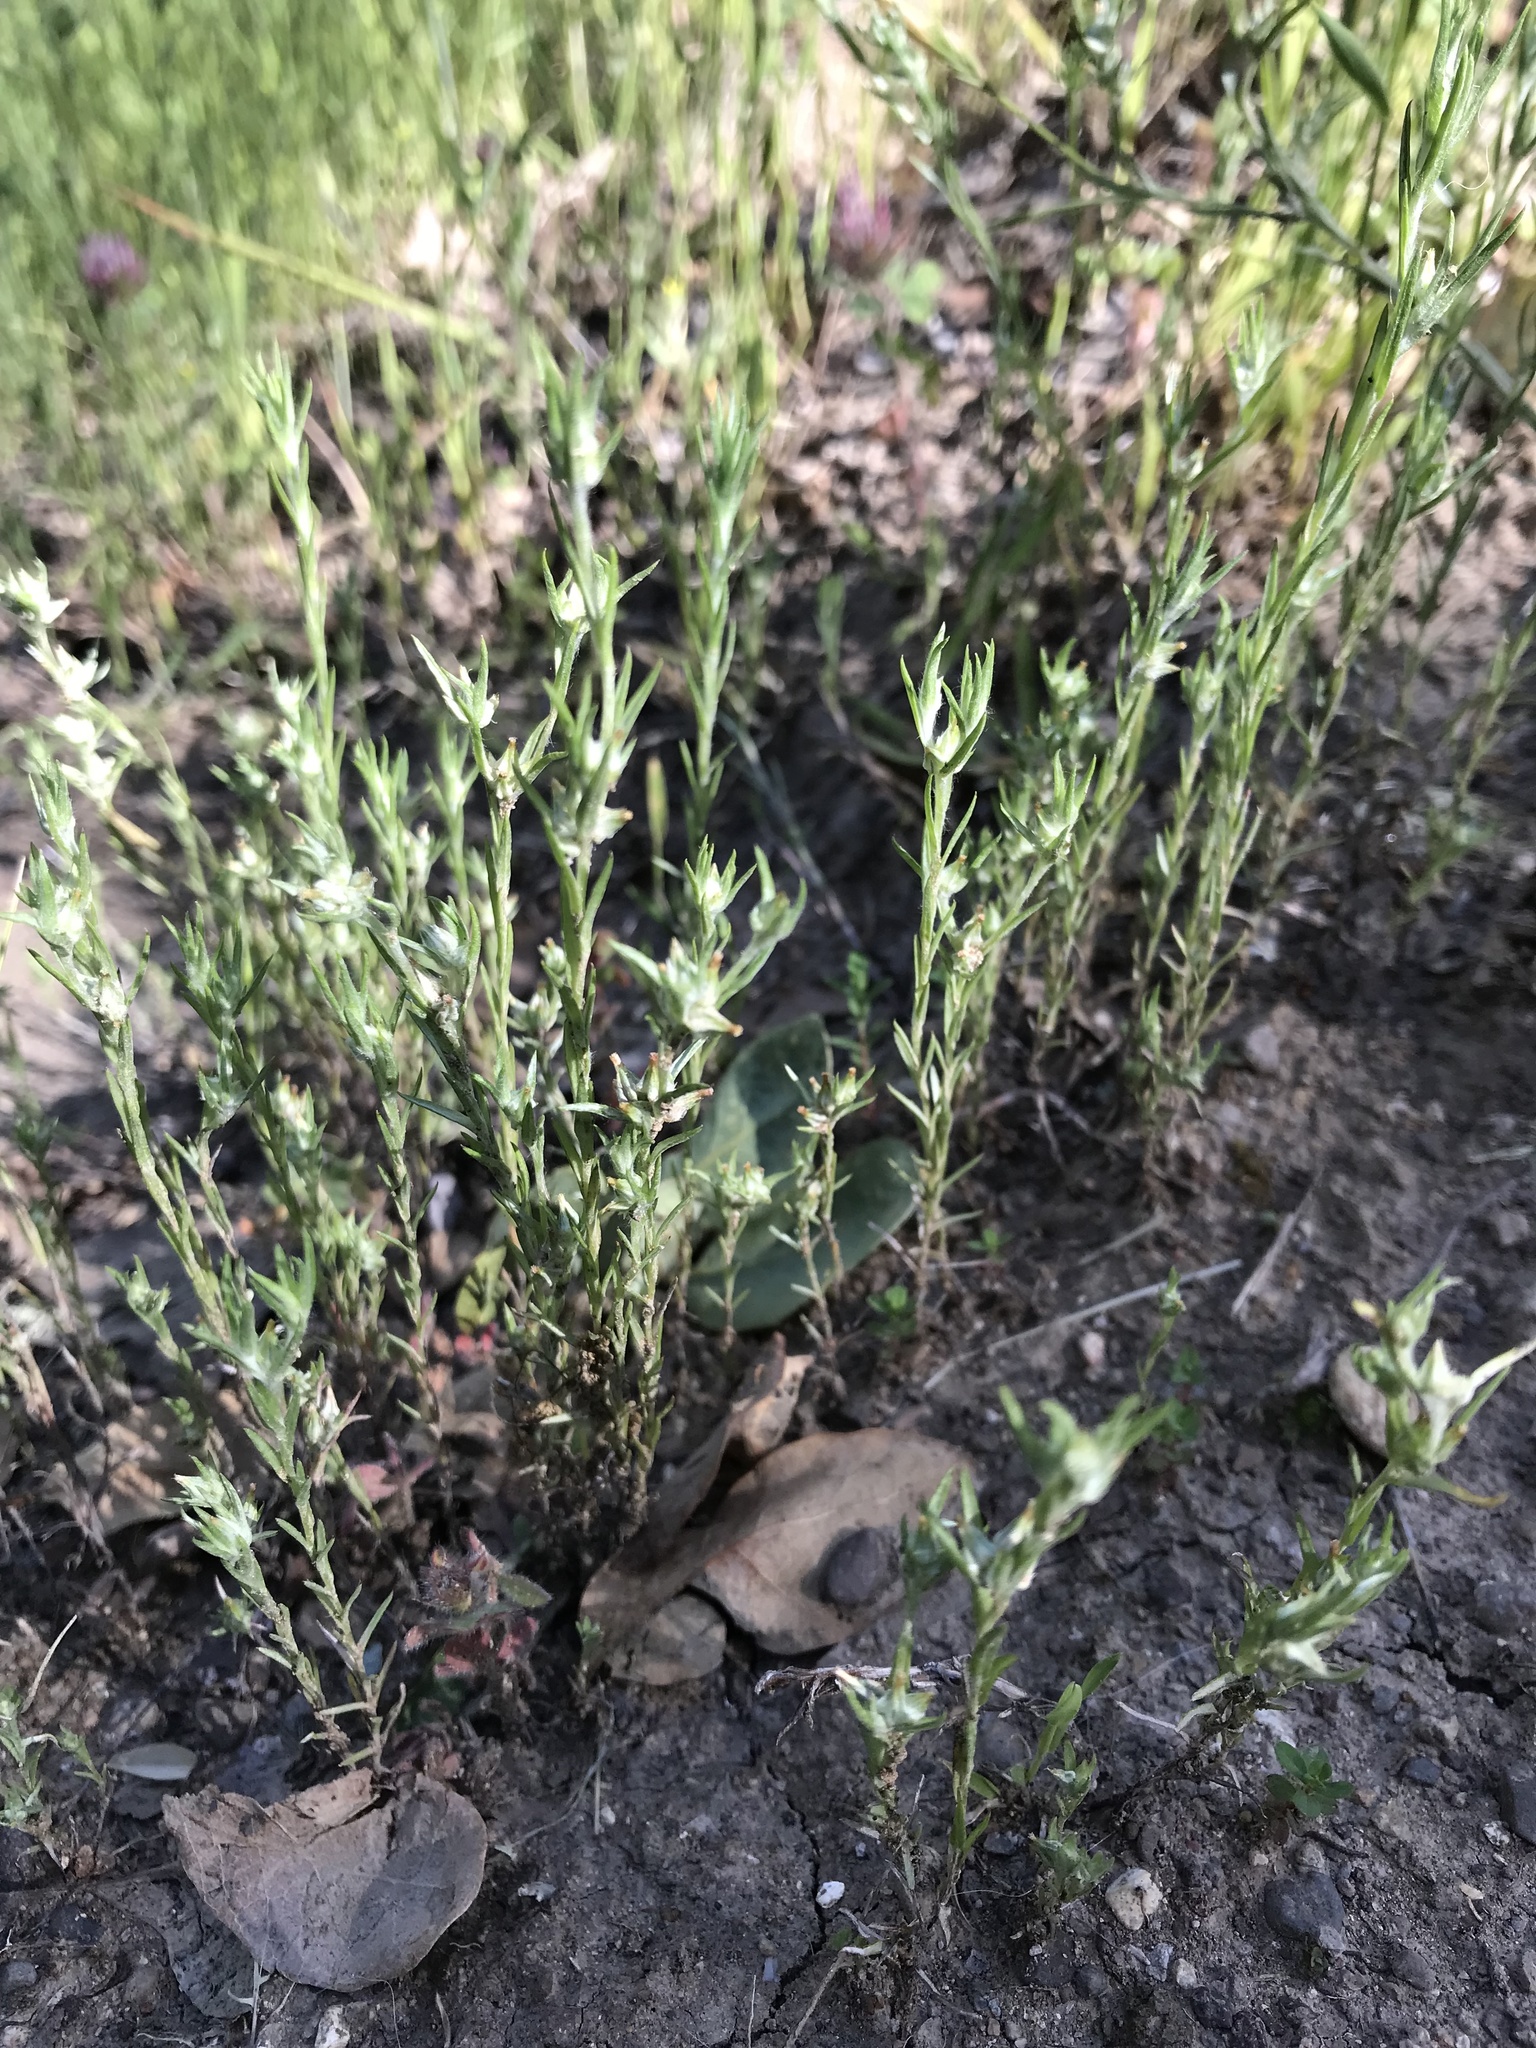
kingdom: Plantae
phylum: Tracheophyta
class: Magnoliopsida
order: Asterales
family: Asteraceae
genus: Logfia
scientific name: Logfia gallica
